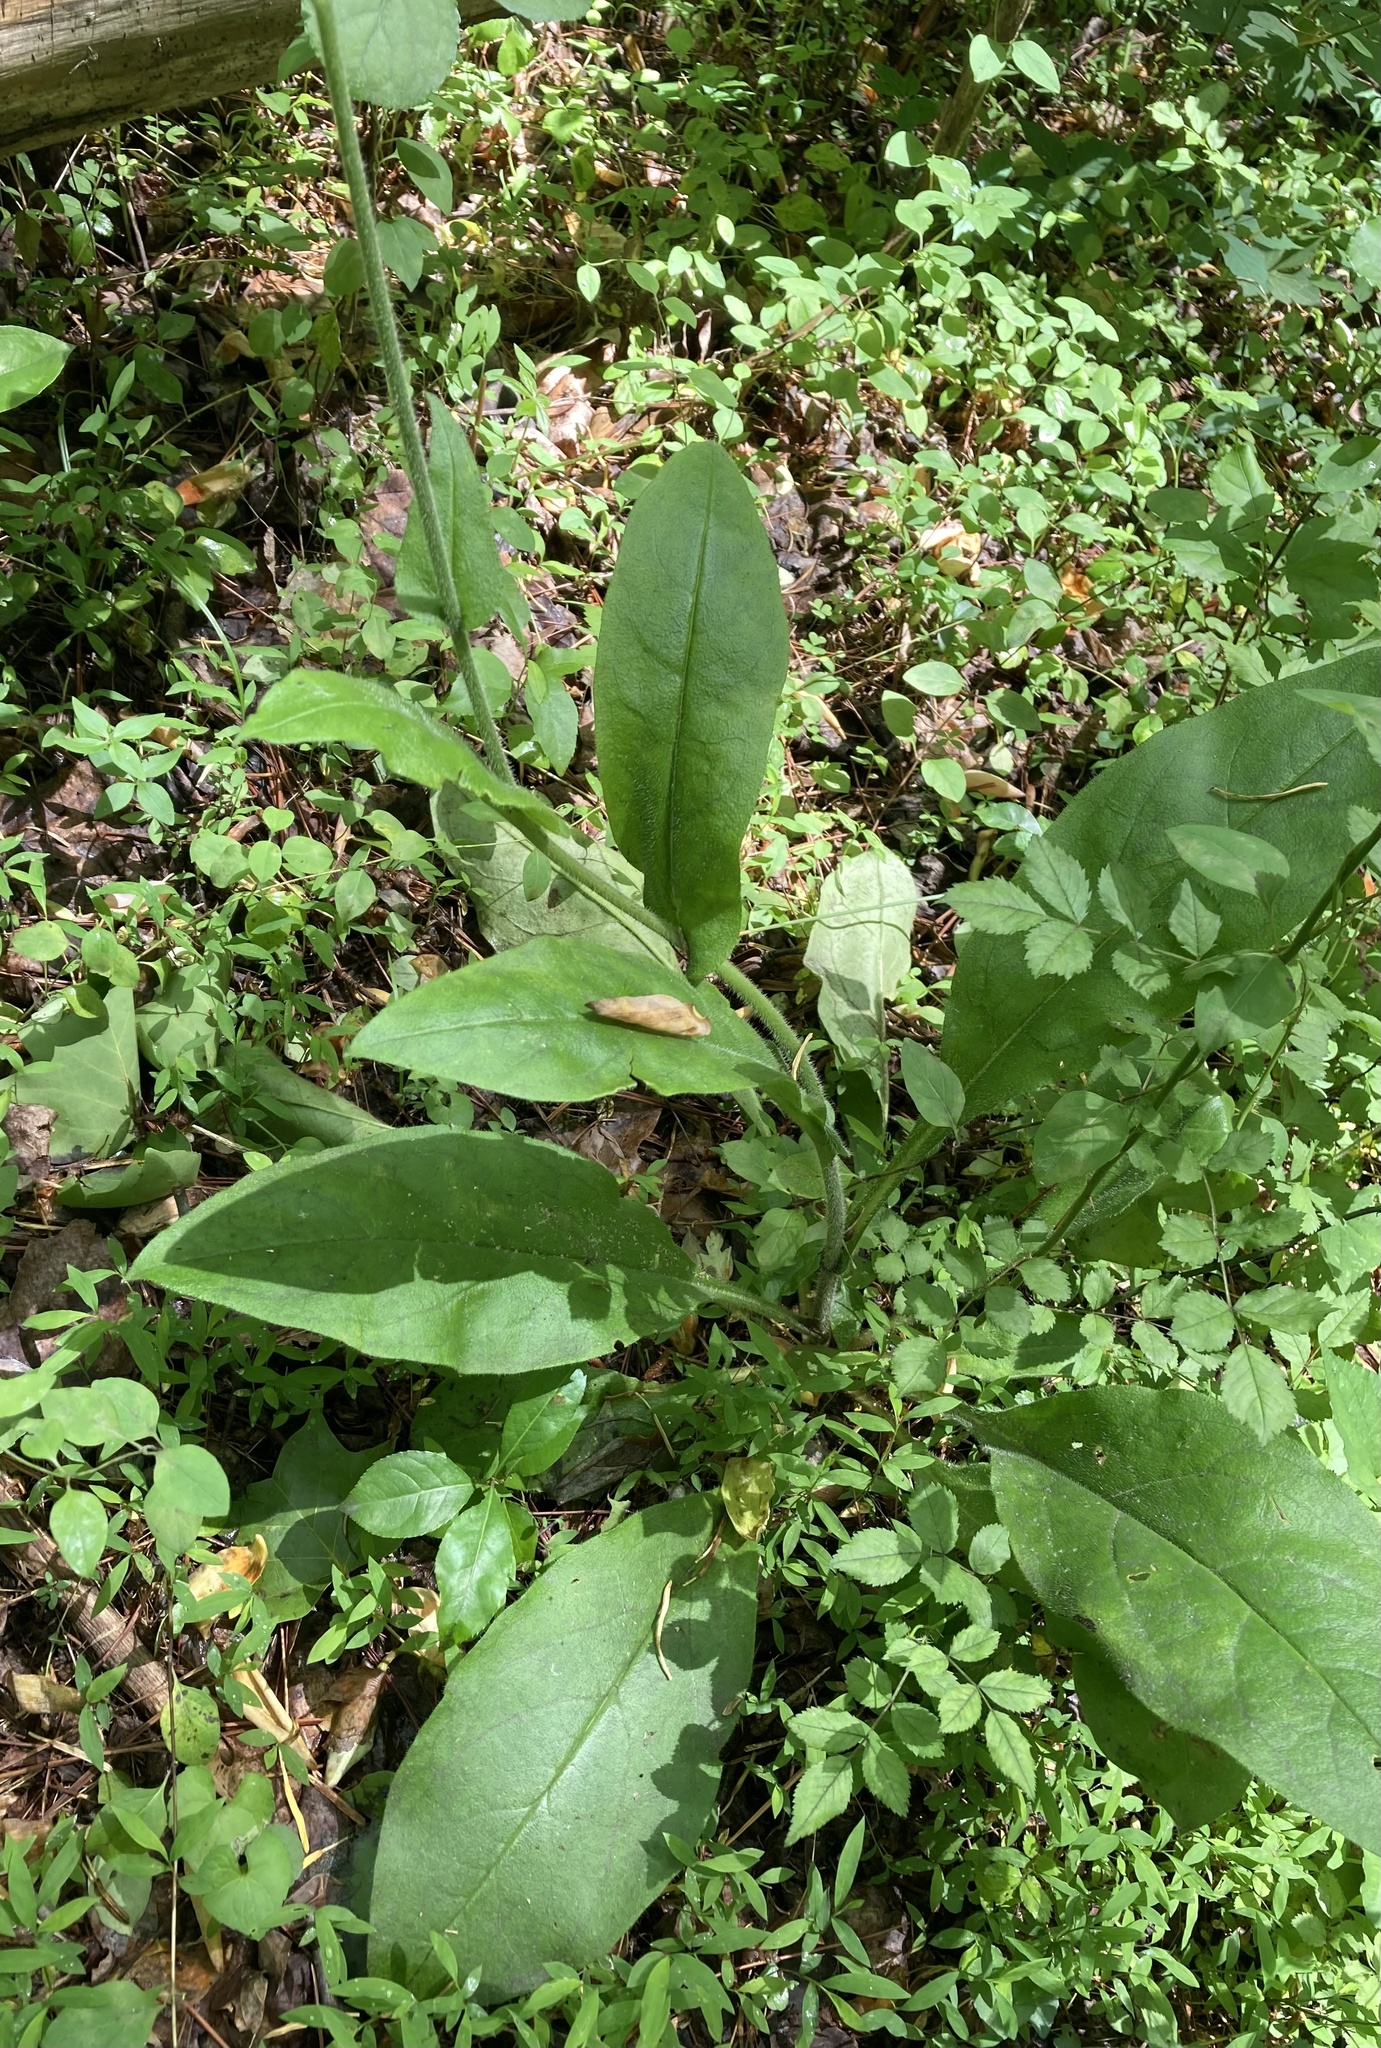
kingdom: Plantae
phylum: Tracheophyta
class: Magnoliopsida
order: Boraginales
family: Boraginaceae
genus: Andersonglossum
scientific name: Andersonglossum virginianum
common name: Wild comfrey
